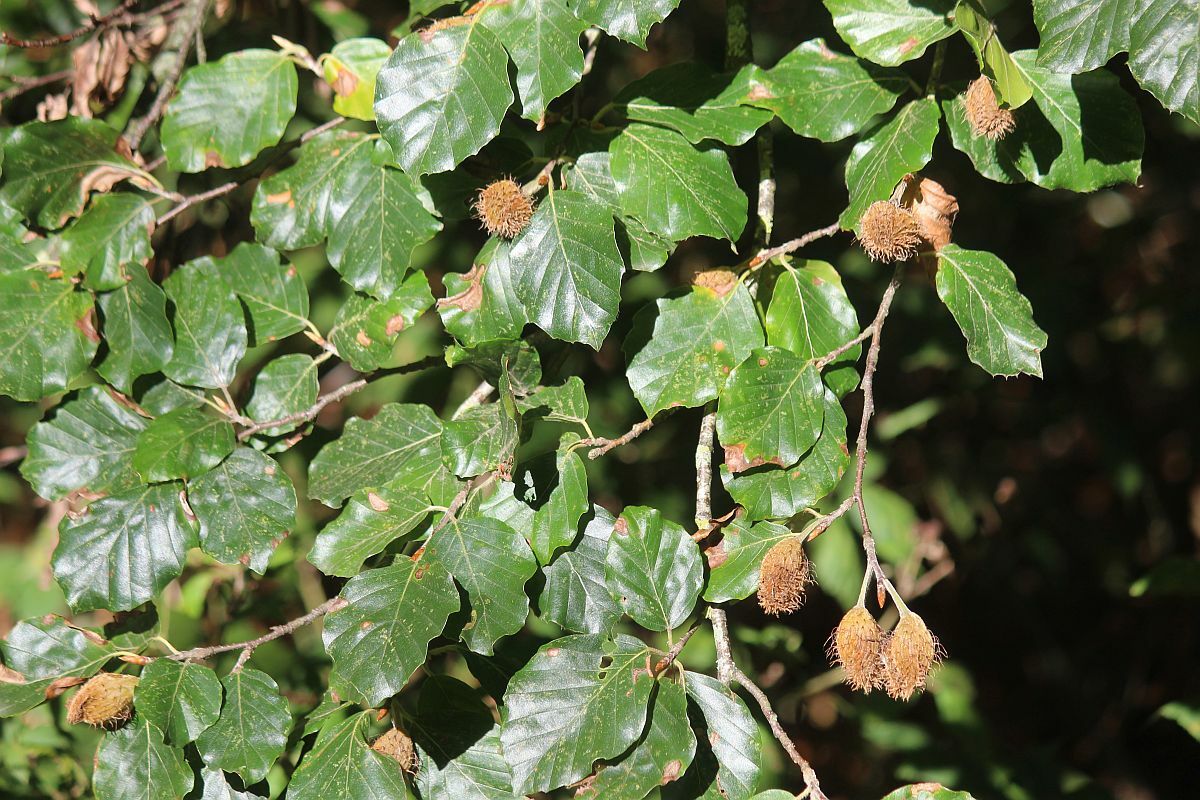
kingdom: Plantae
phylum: Tracheophyta
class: Magnoliopsida
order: Fagales
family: Fagaceae
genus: Fagus
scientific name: Fagus sylvatica
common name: Beech
